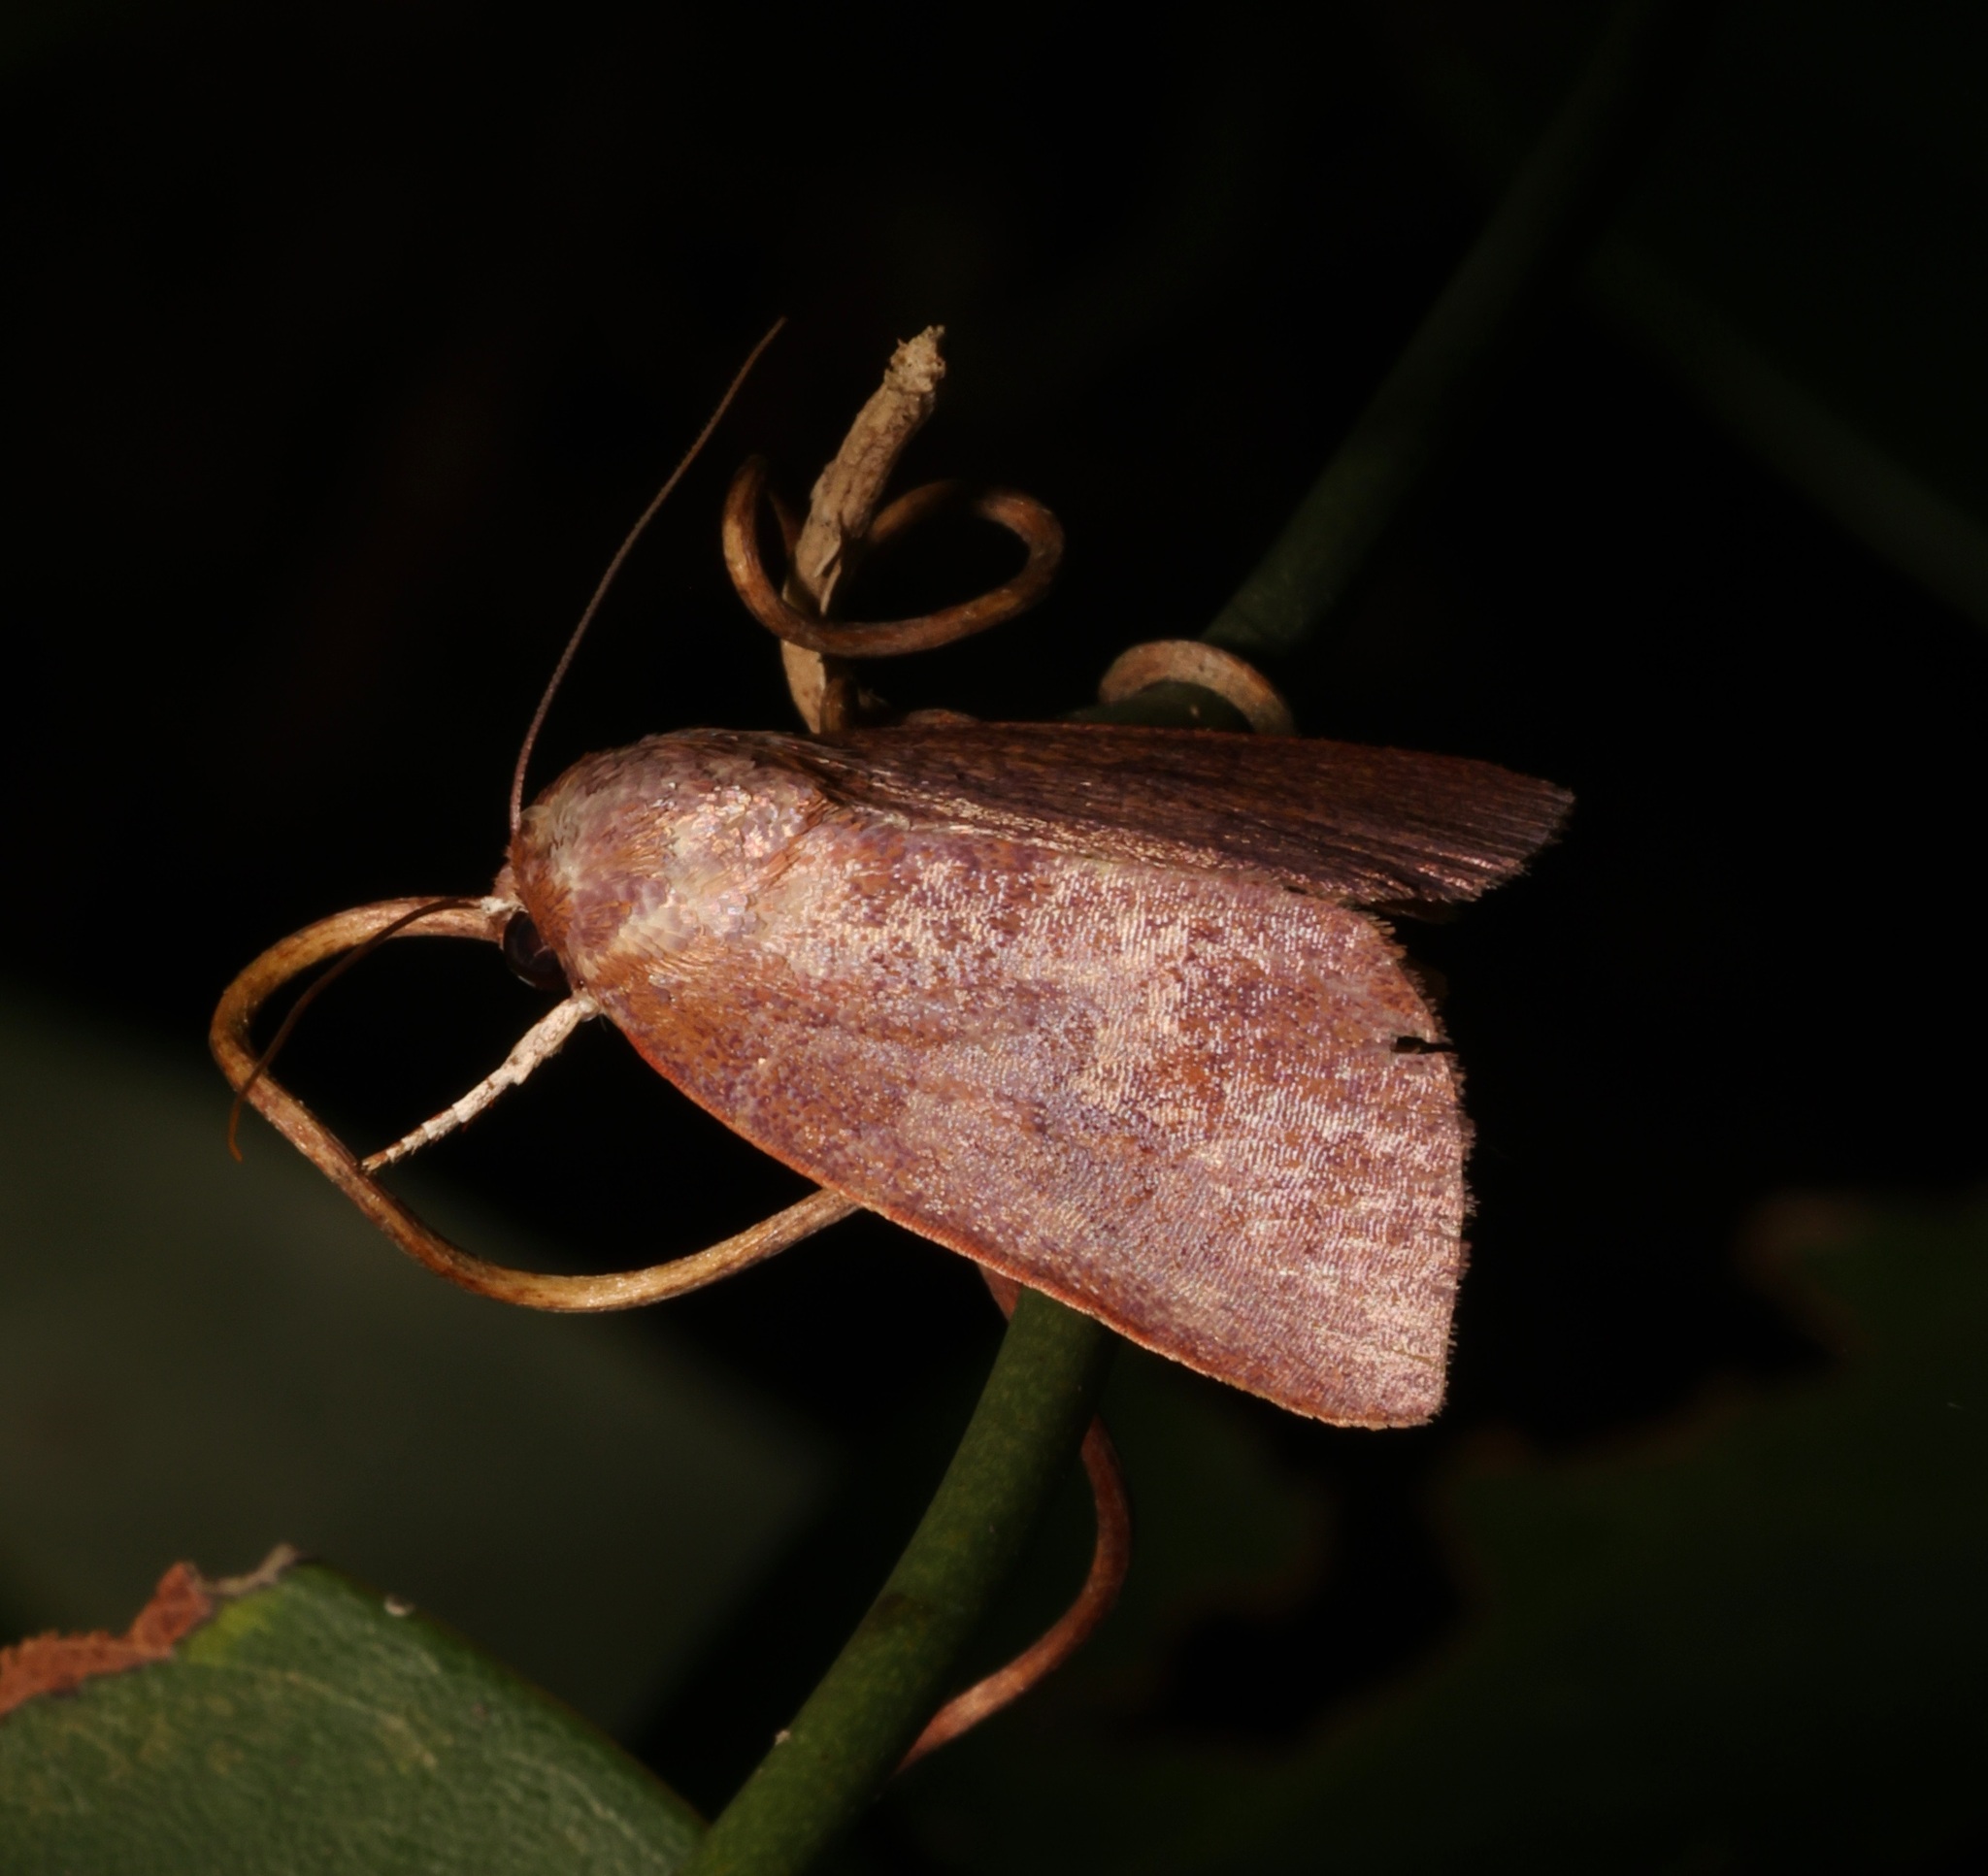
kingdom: Animalia
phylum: Arthropoda
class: Insecta
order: Lepidoptera
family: Nolidae
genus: Calymera
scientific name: Calymera
